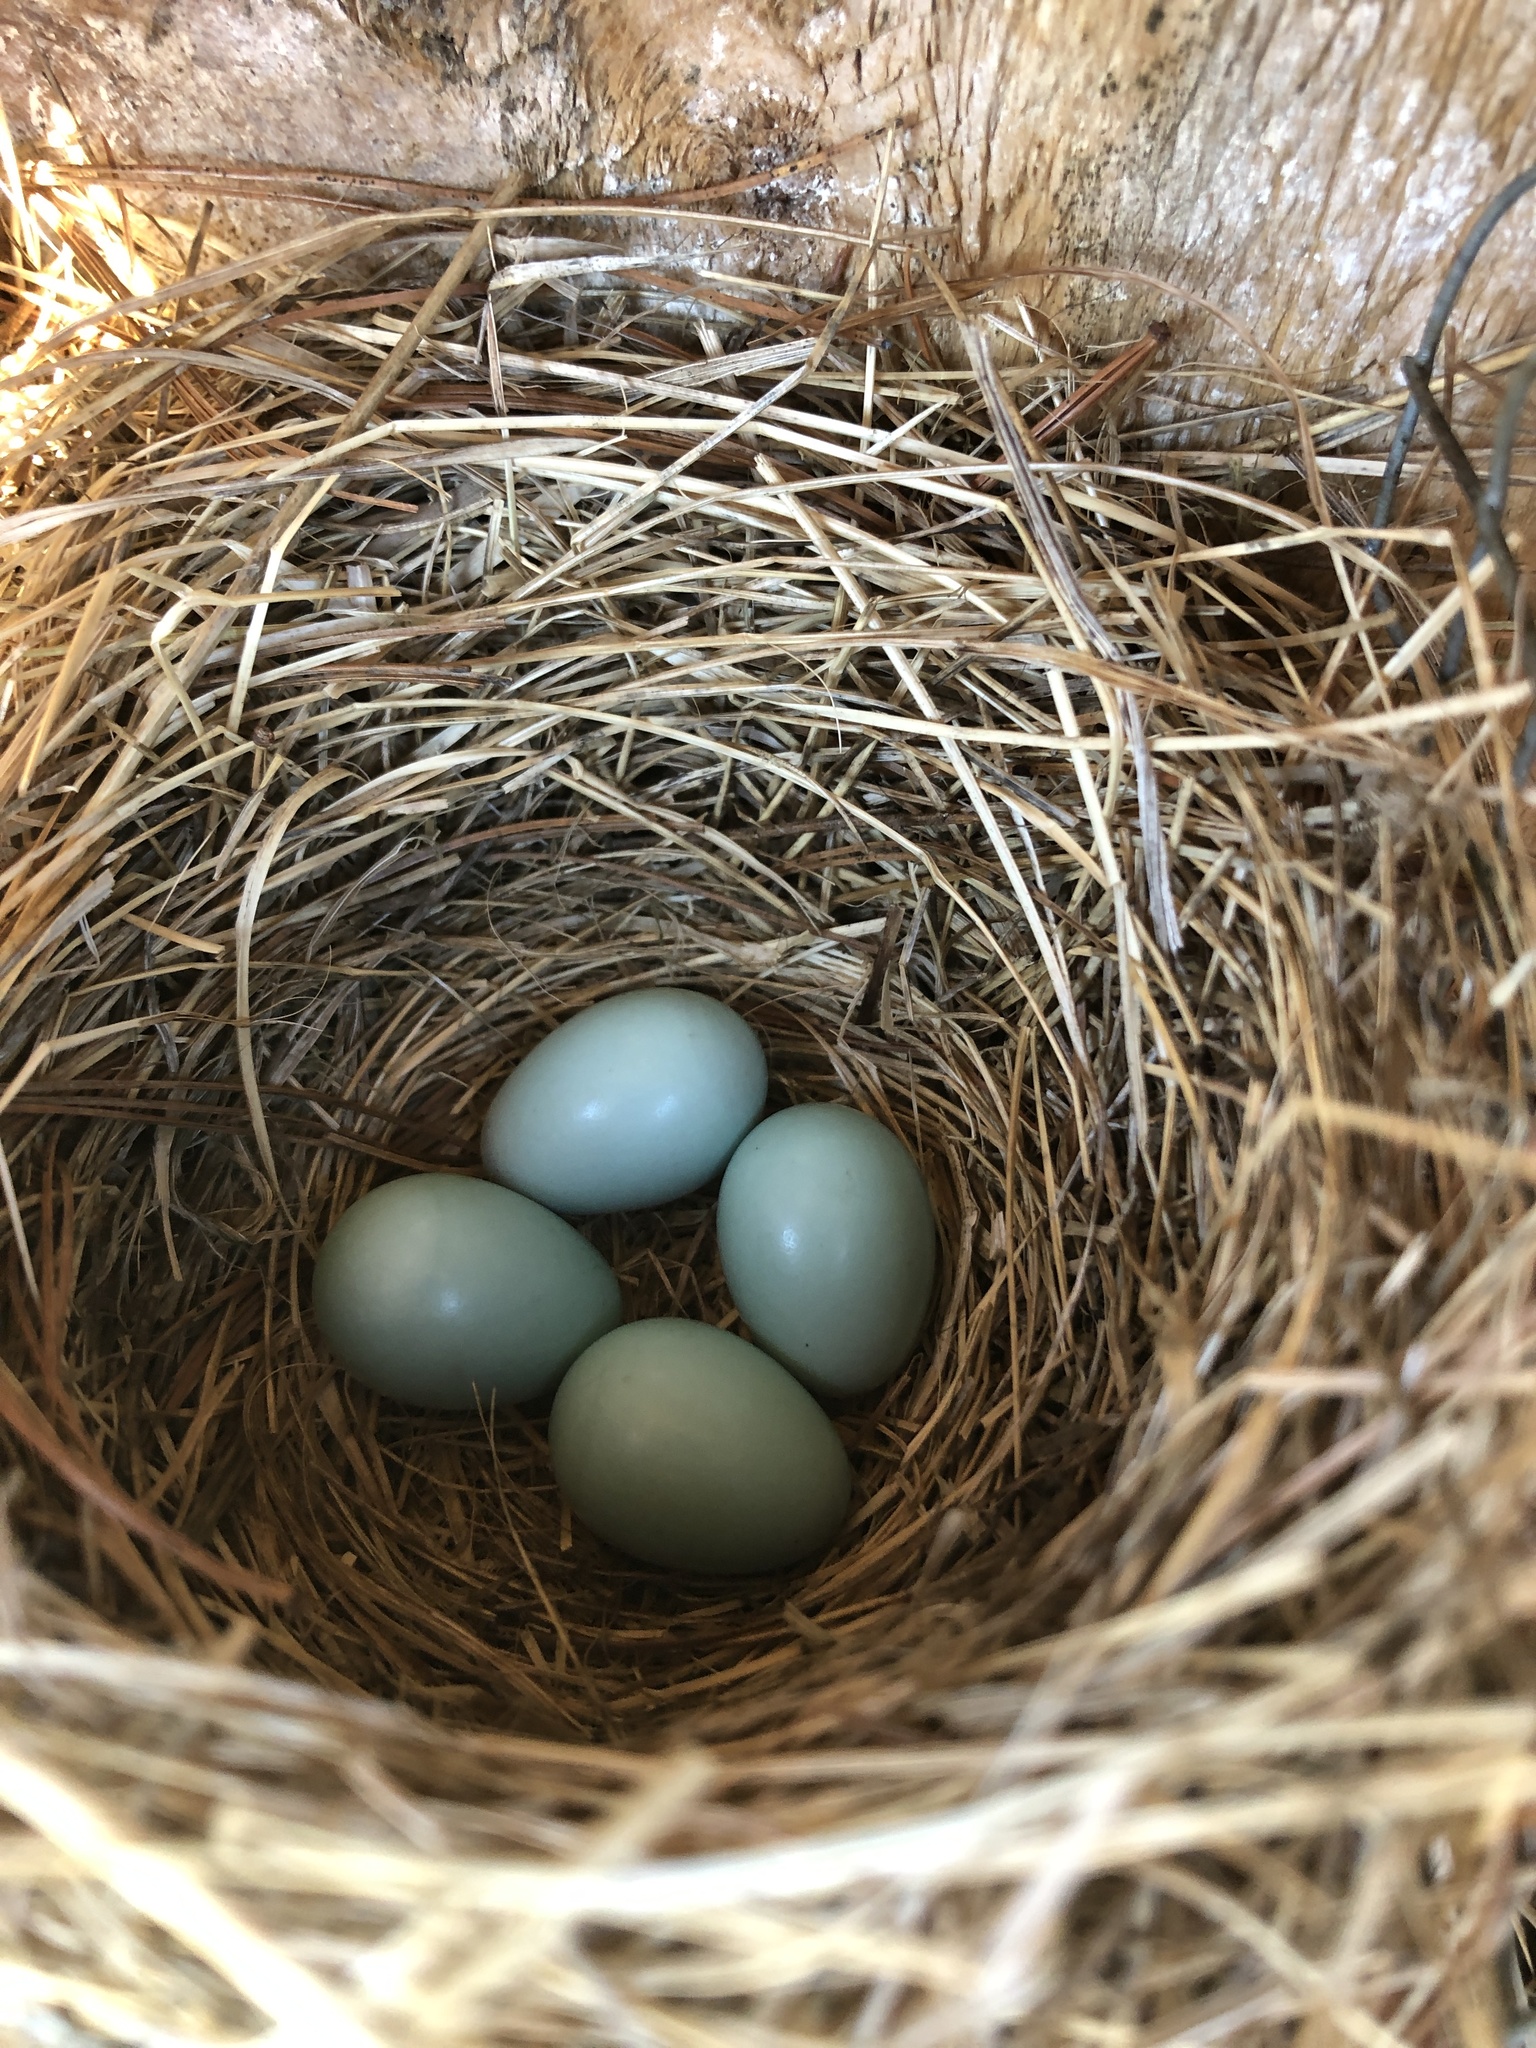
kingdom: Animalia
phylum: Chordata
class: Aves
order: Passeriformes
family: Turdidae
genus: Sialia
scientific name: Sialia sialis
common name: Eastern bluebird
